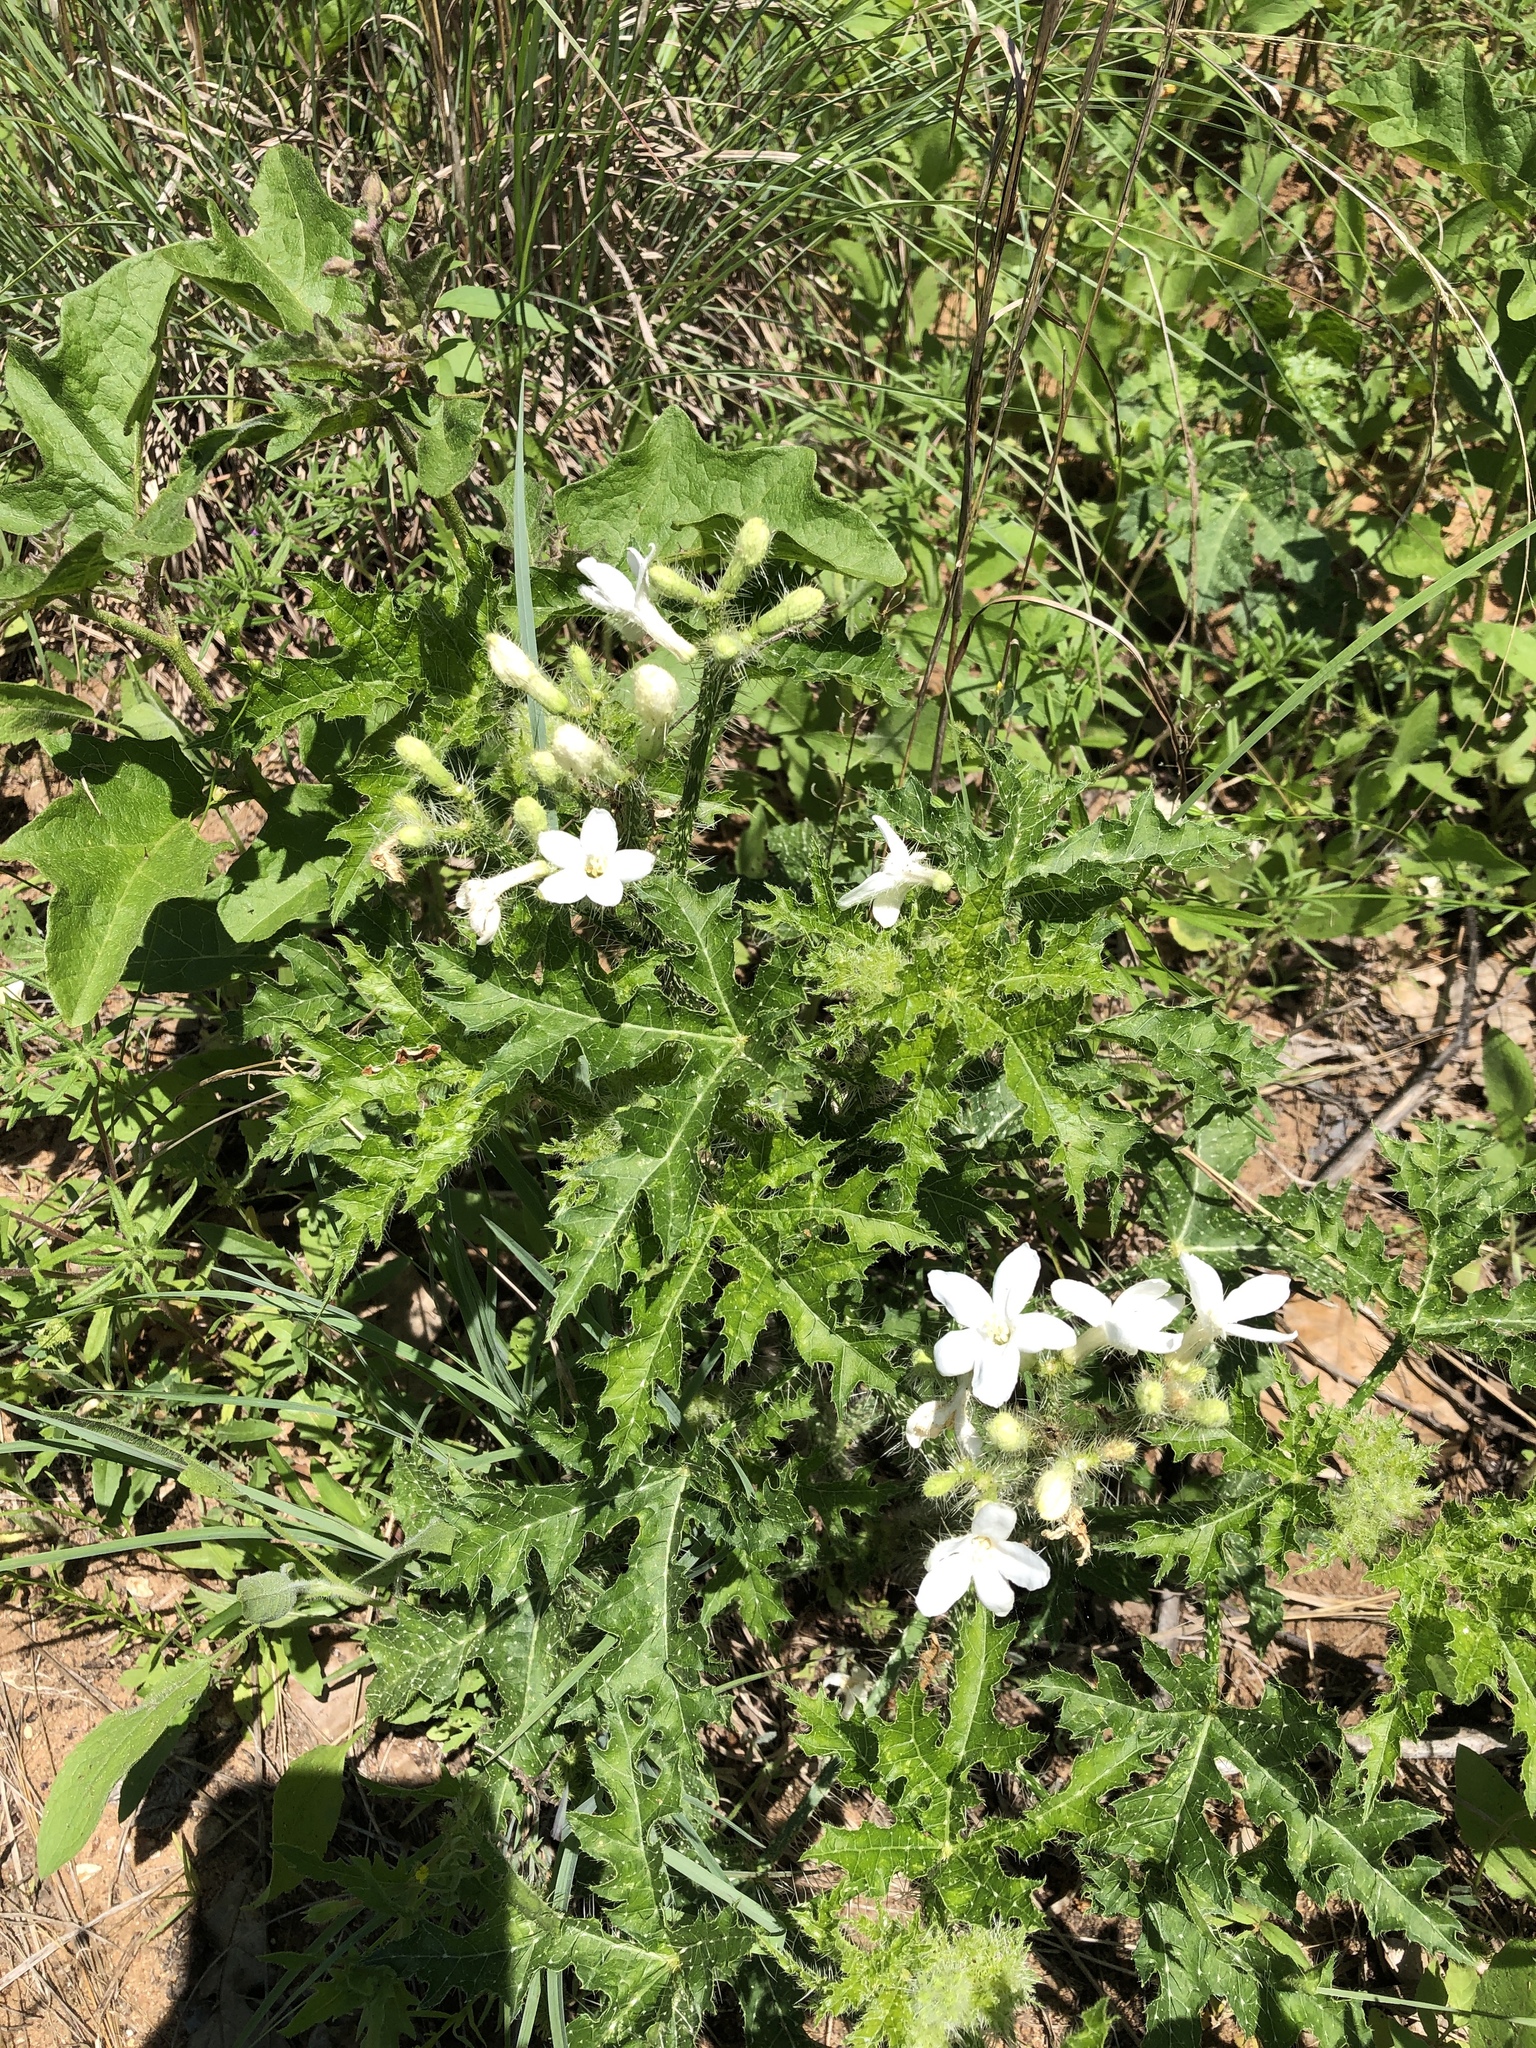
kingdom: Plantae
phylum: Tracheophyta
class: Magnoliopsida
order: Malpighiales
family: Euphorbiaceae
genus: Cnidoscolus
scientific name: Cnidoscolus texanus
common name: Texas bull-nettle
